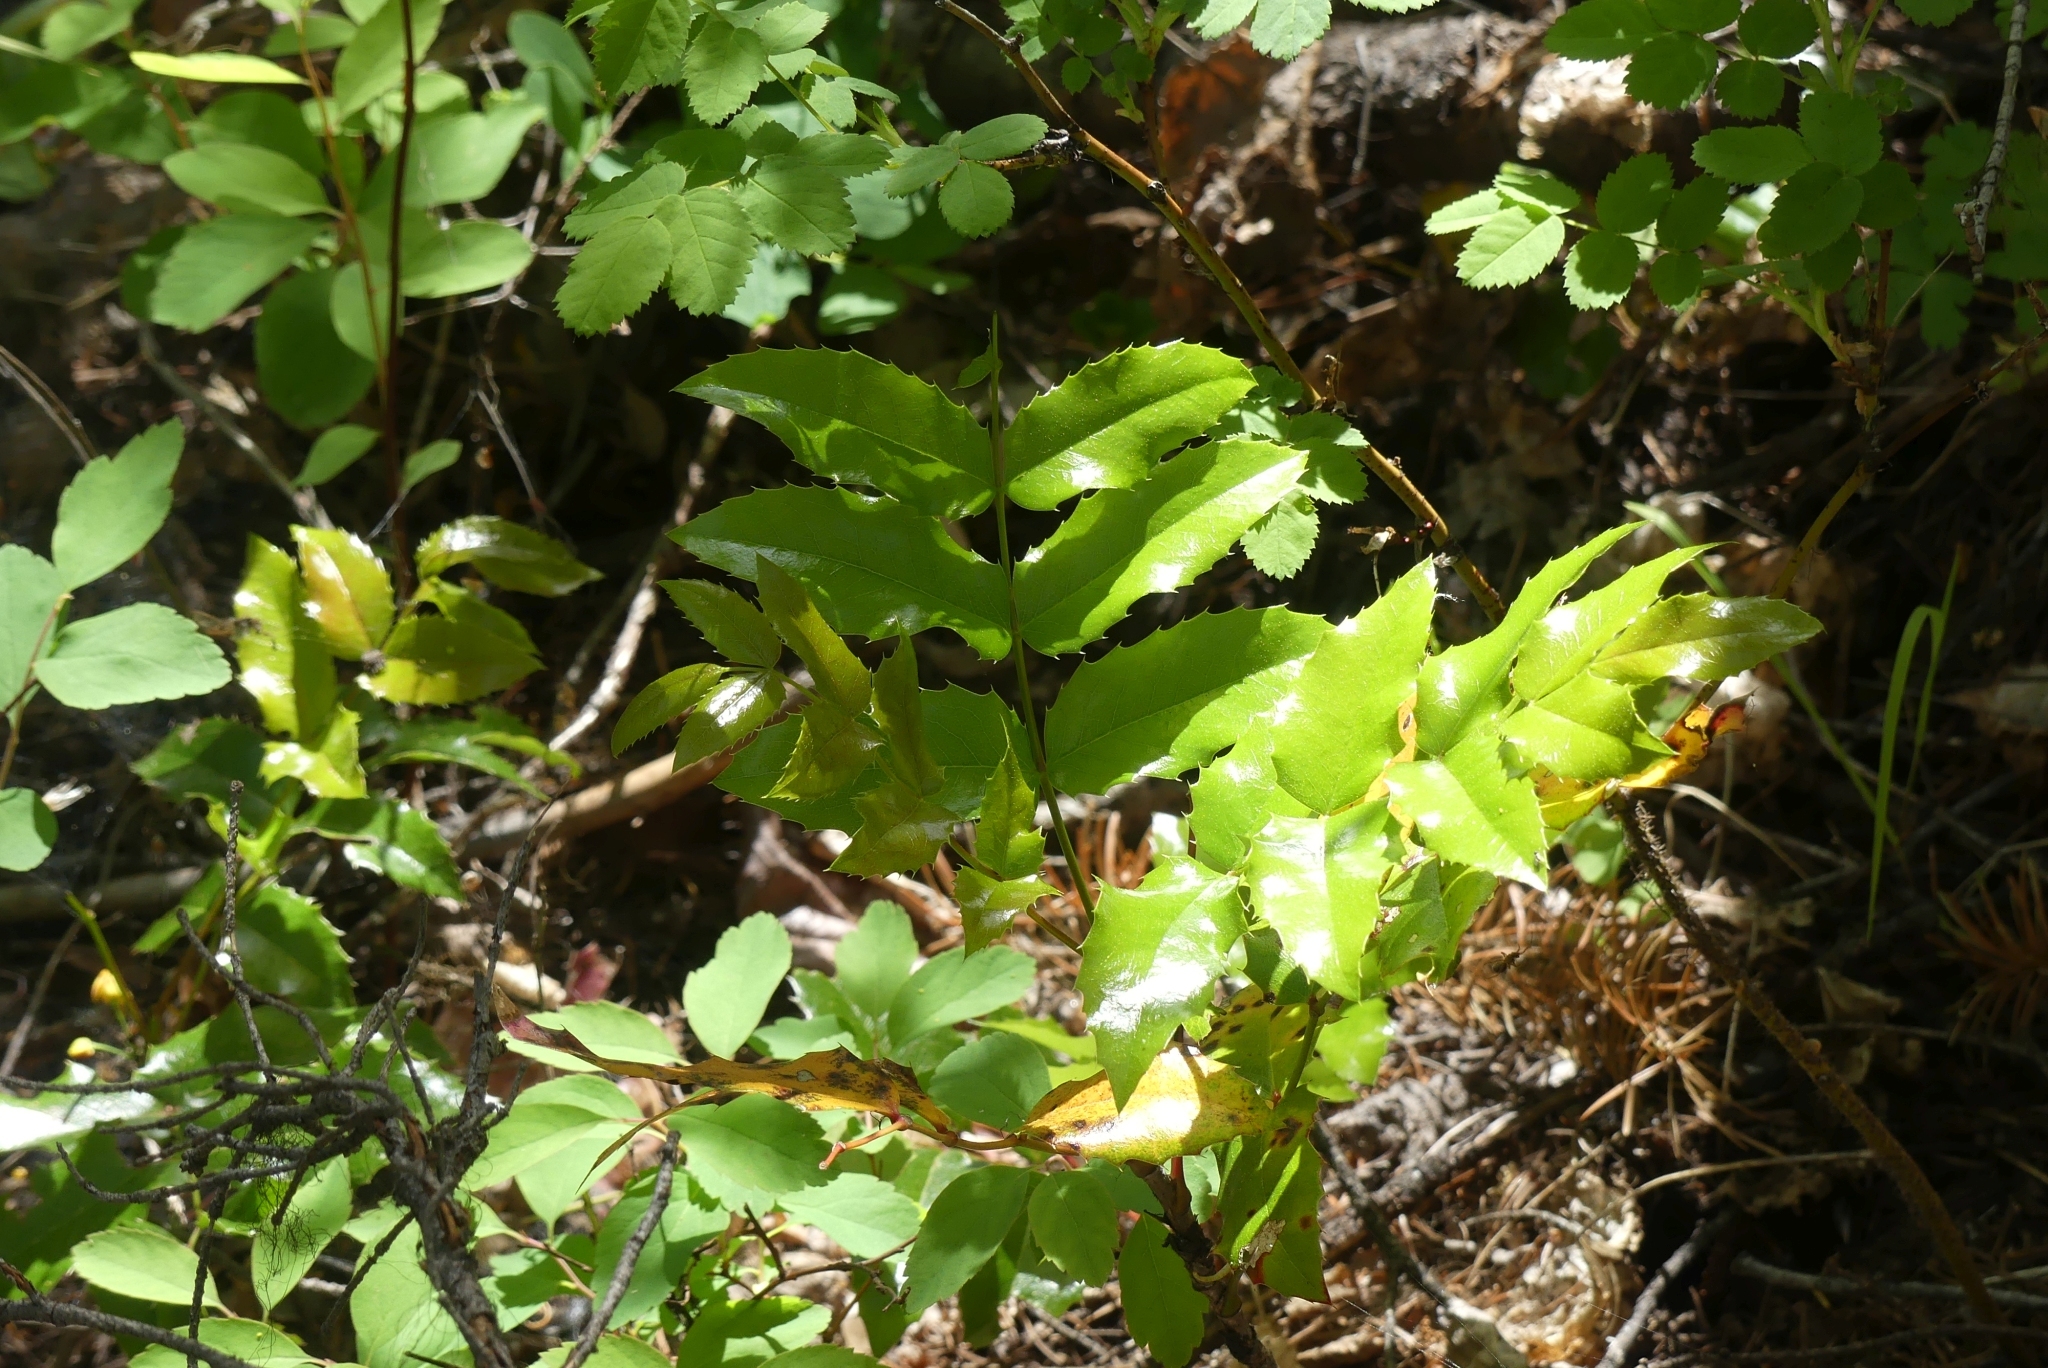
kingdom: Plantae
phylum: Tracheophyta
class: Magnoliopsida
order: Ranunculales
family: Berberidaceae
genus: Mahonia
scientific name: Mahonia aquifolium
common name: Oregon-grape
